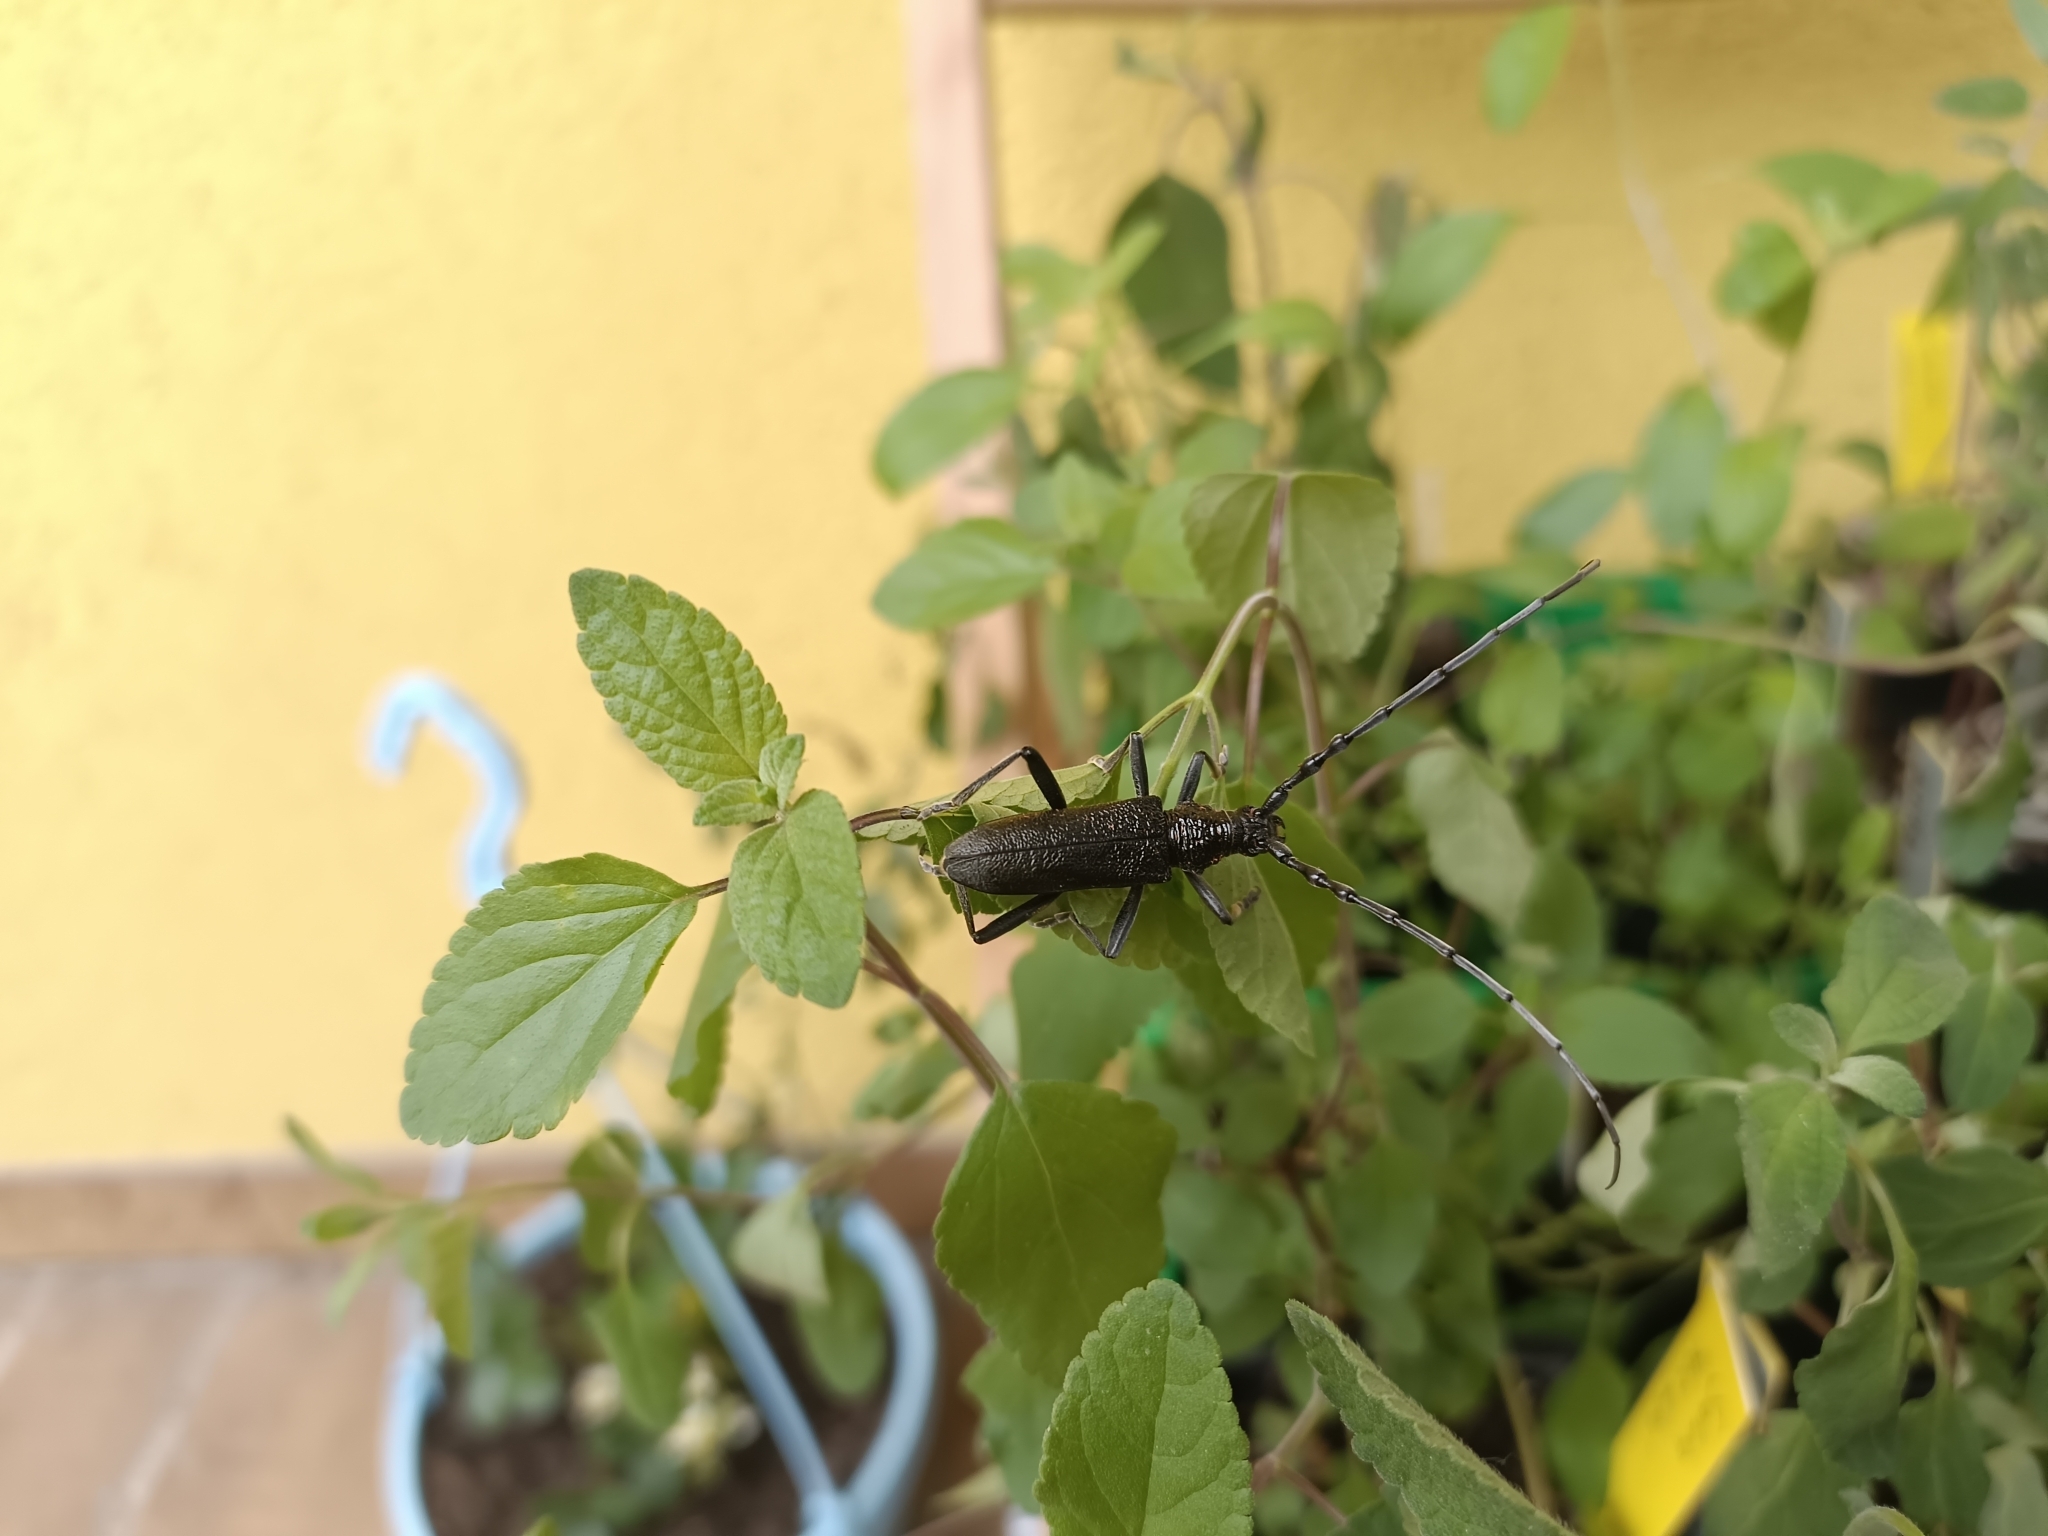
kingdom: Animalia
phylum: Arthropoda
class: Insecta
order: Coleoptera
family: Cerambycidae
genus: Cerambyx
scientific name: Cerambyx scopolii
